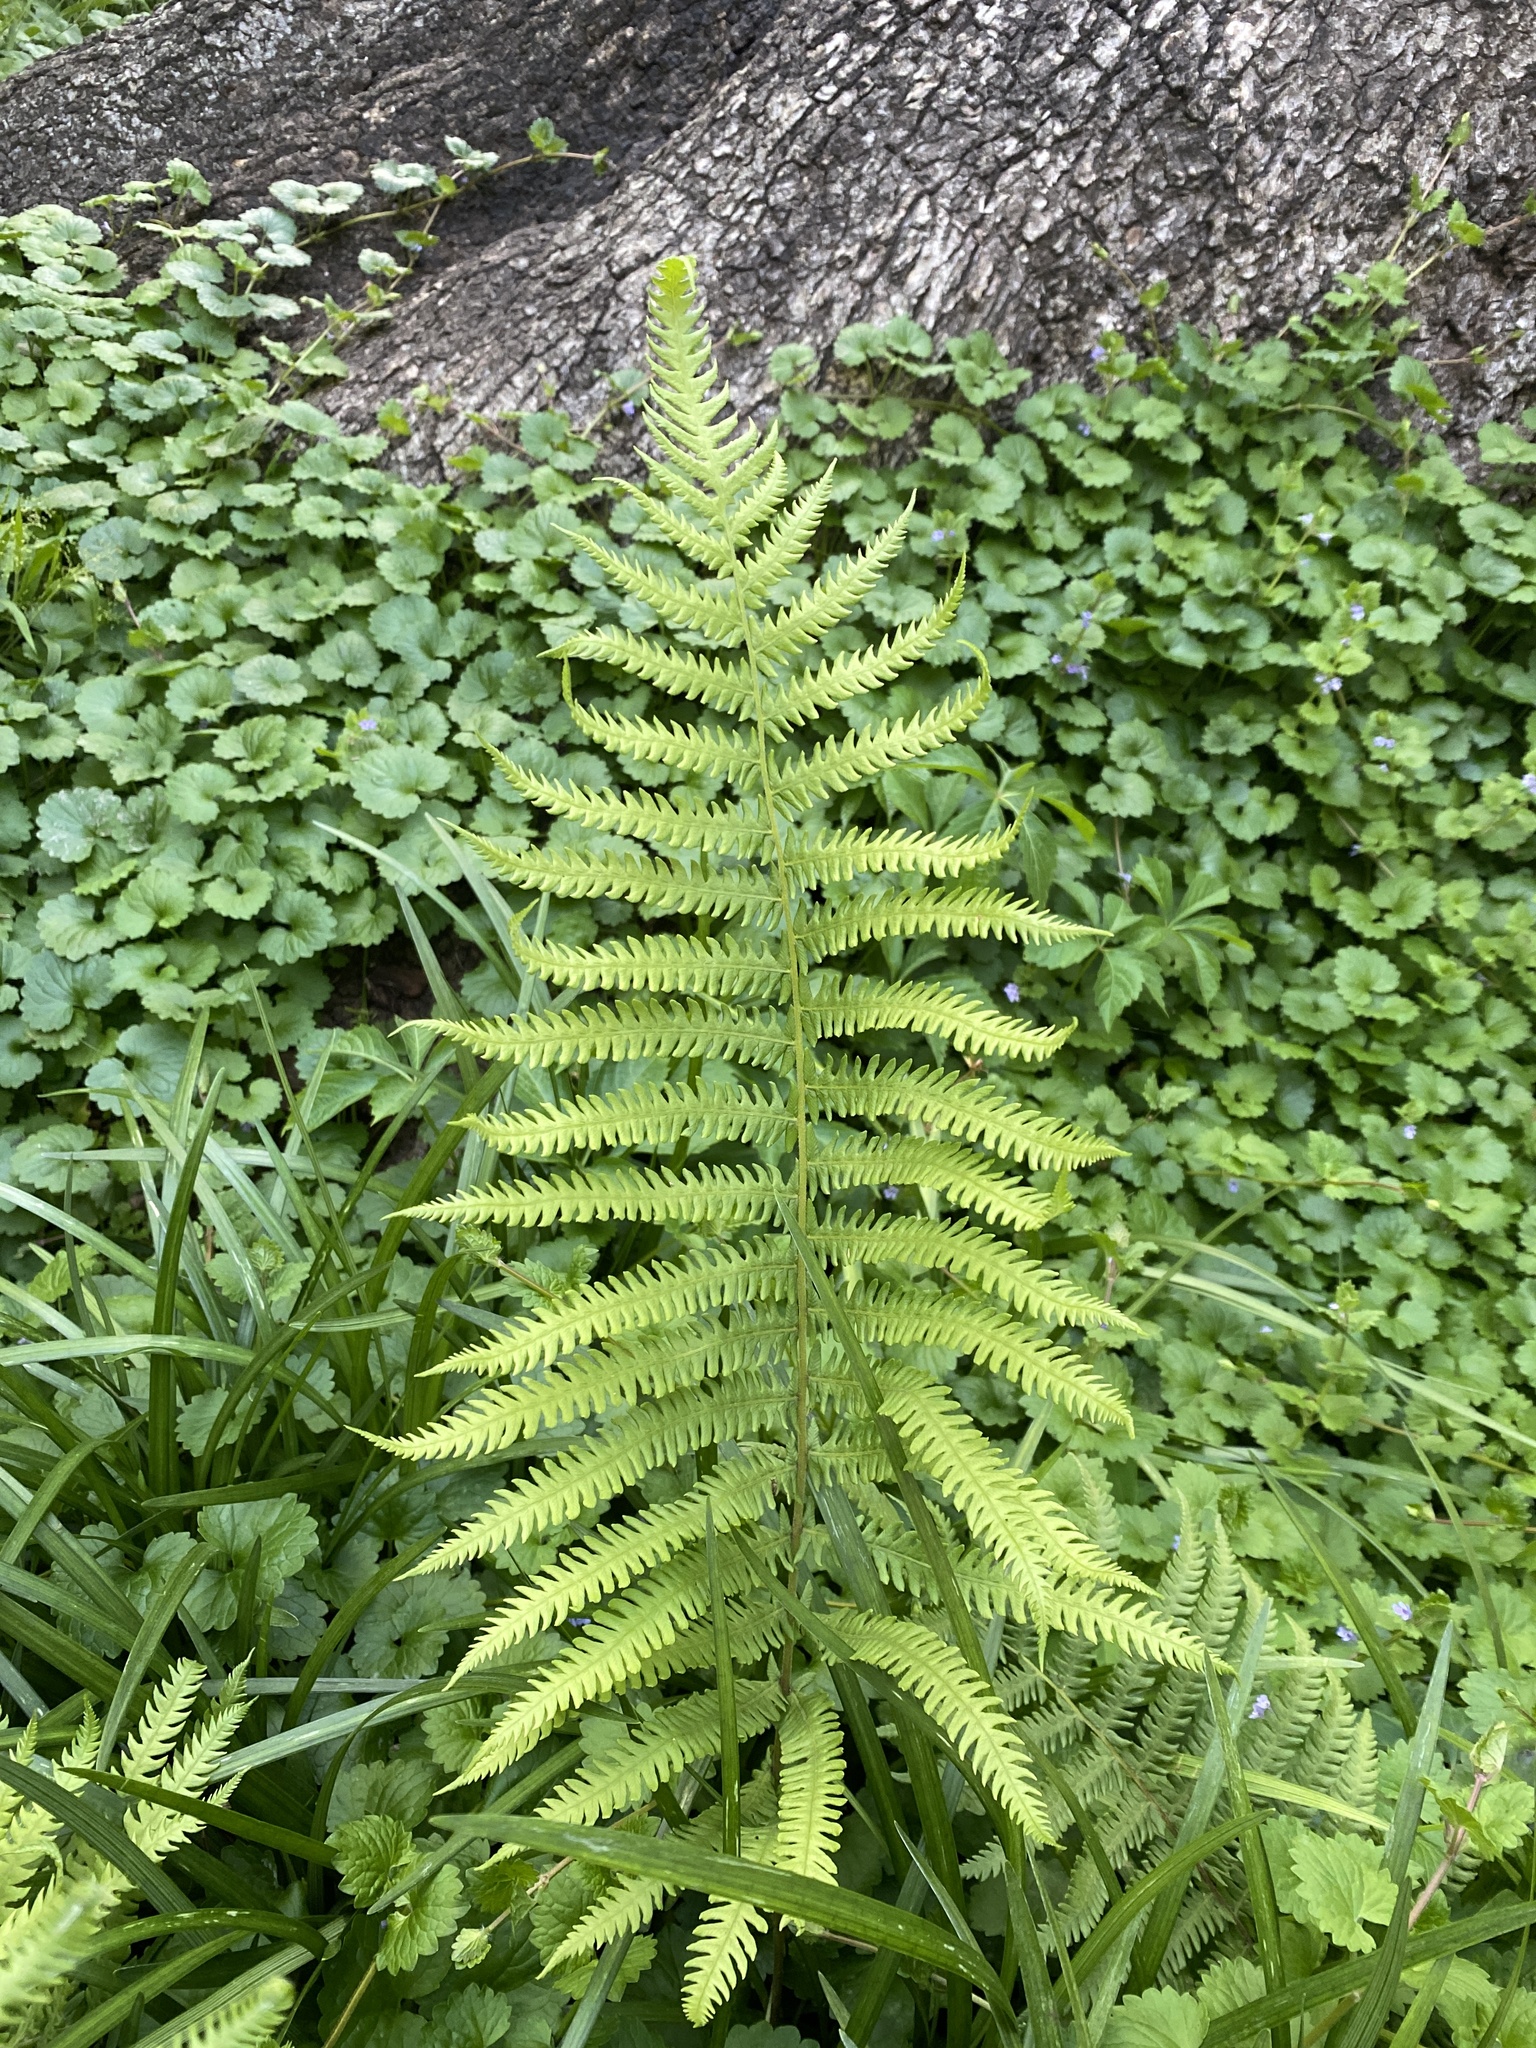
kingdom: Plantae
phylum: Tracheophyta
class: Polypodiopsida
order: Polypodiales
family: Thelypteridaceae
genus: Pelazoneuron
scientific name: Pelazoneuron kunthii
